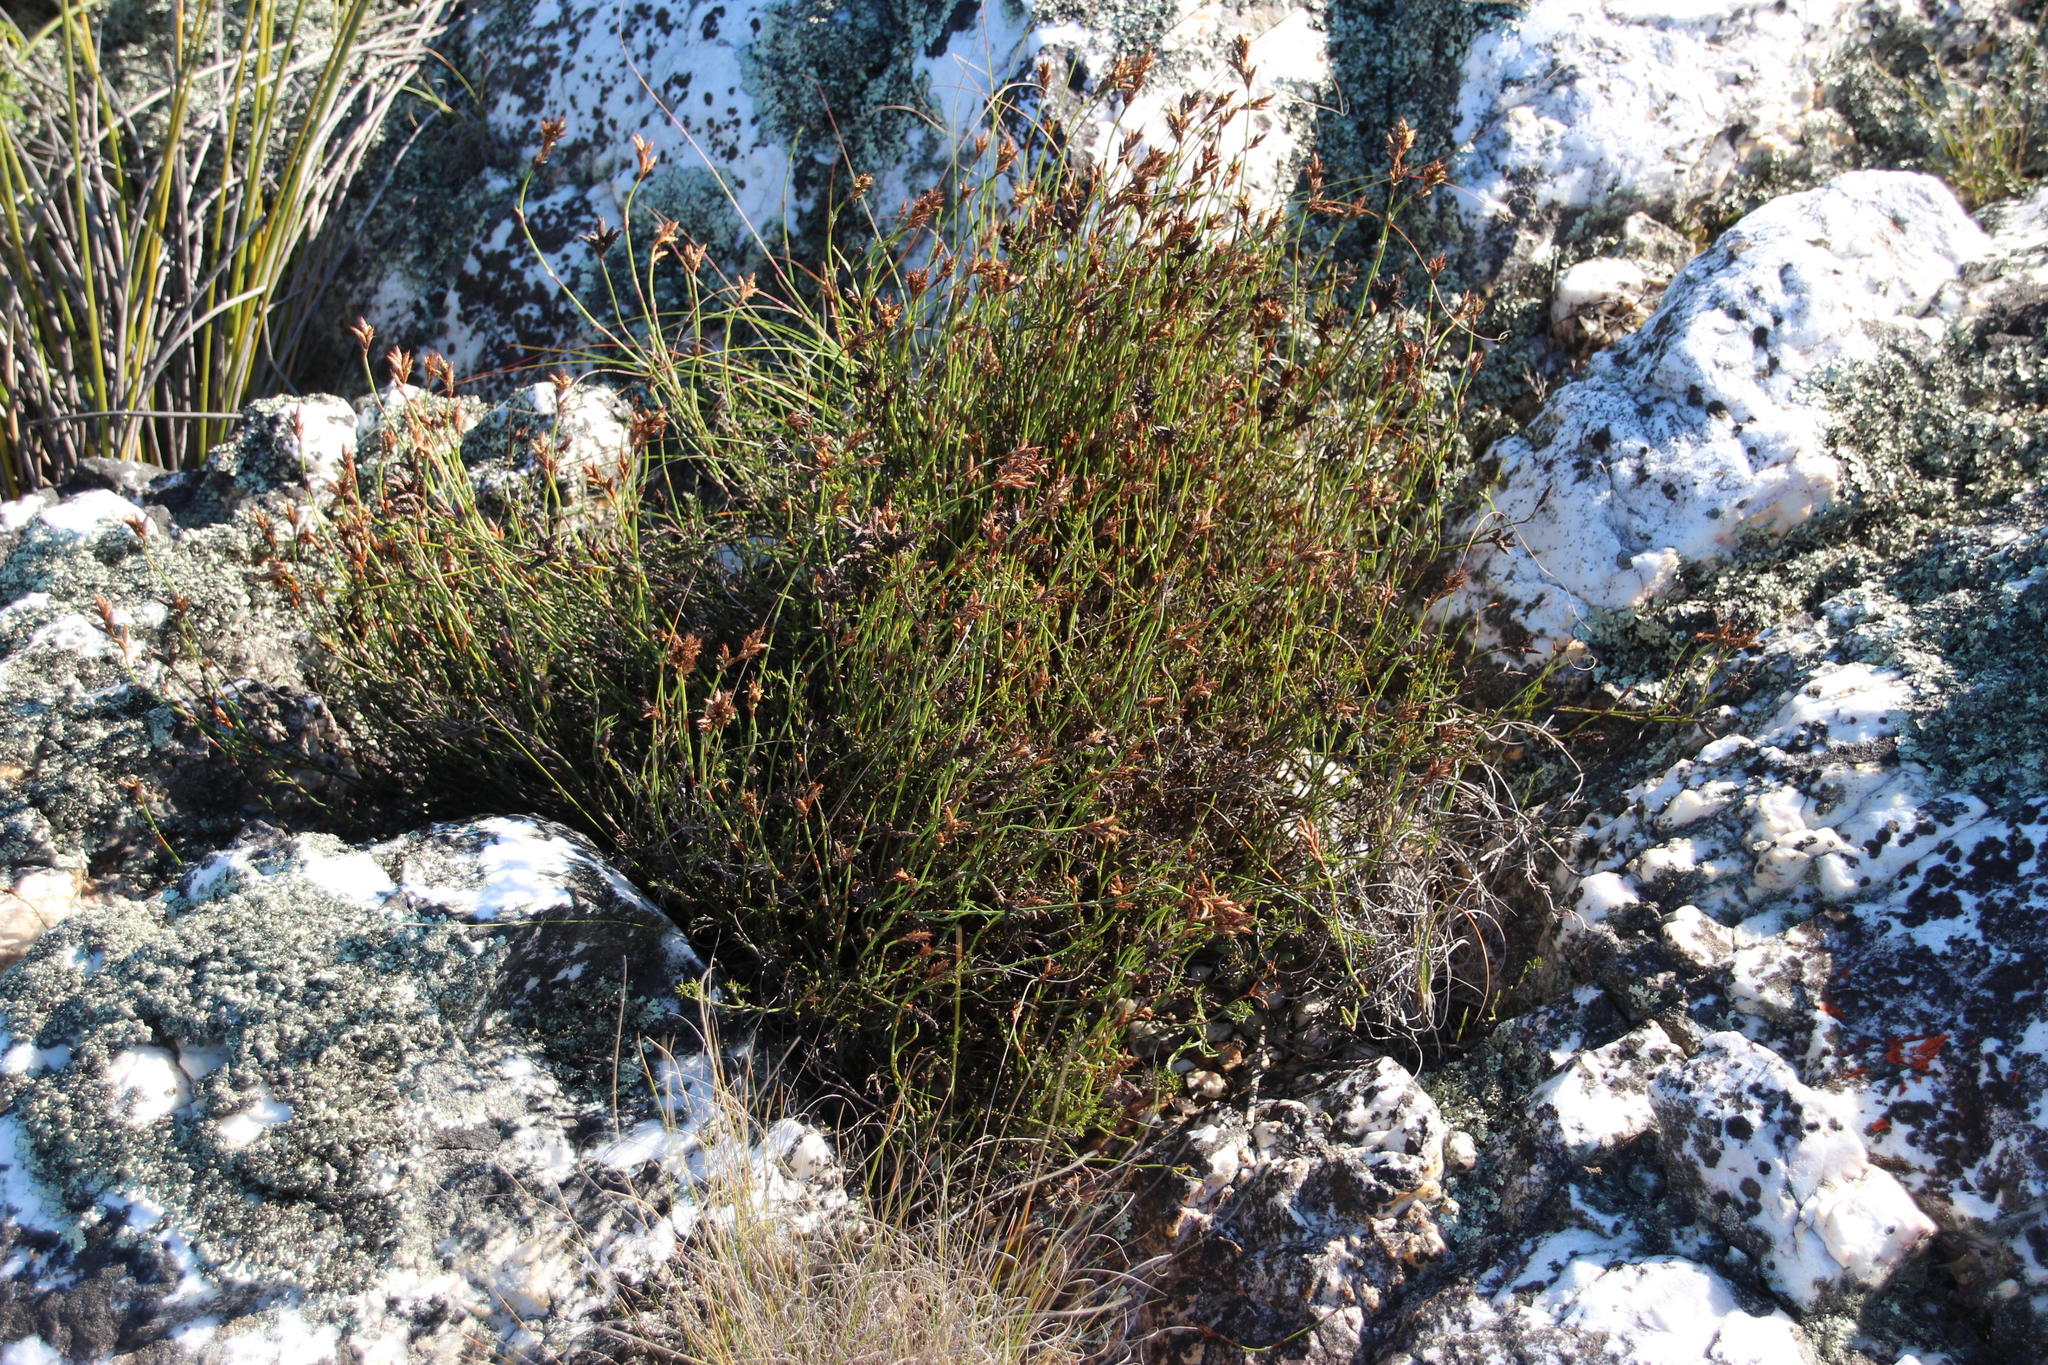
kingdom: Plantae
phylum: Tracheophyta
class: Liliopsida
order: Poales
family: Restionaceae
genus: Restio
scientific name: Restio capensis
